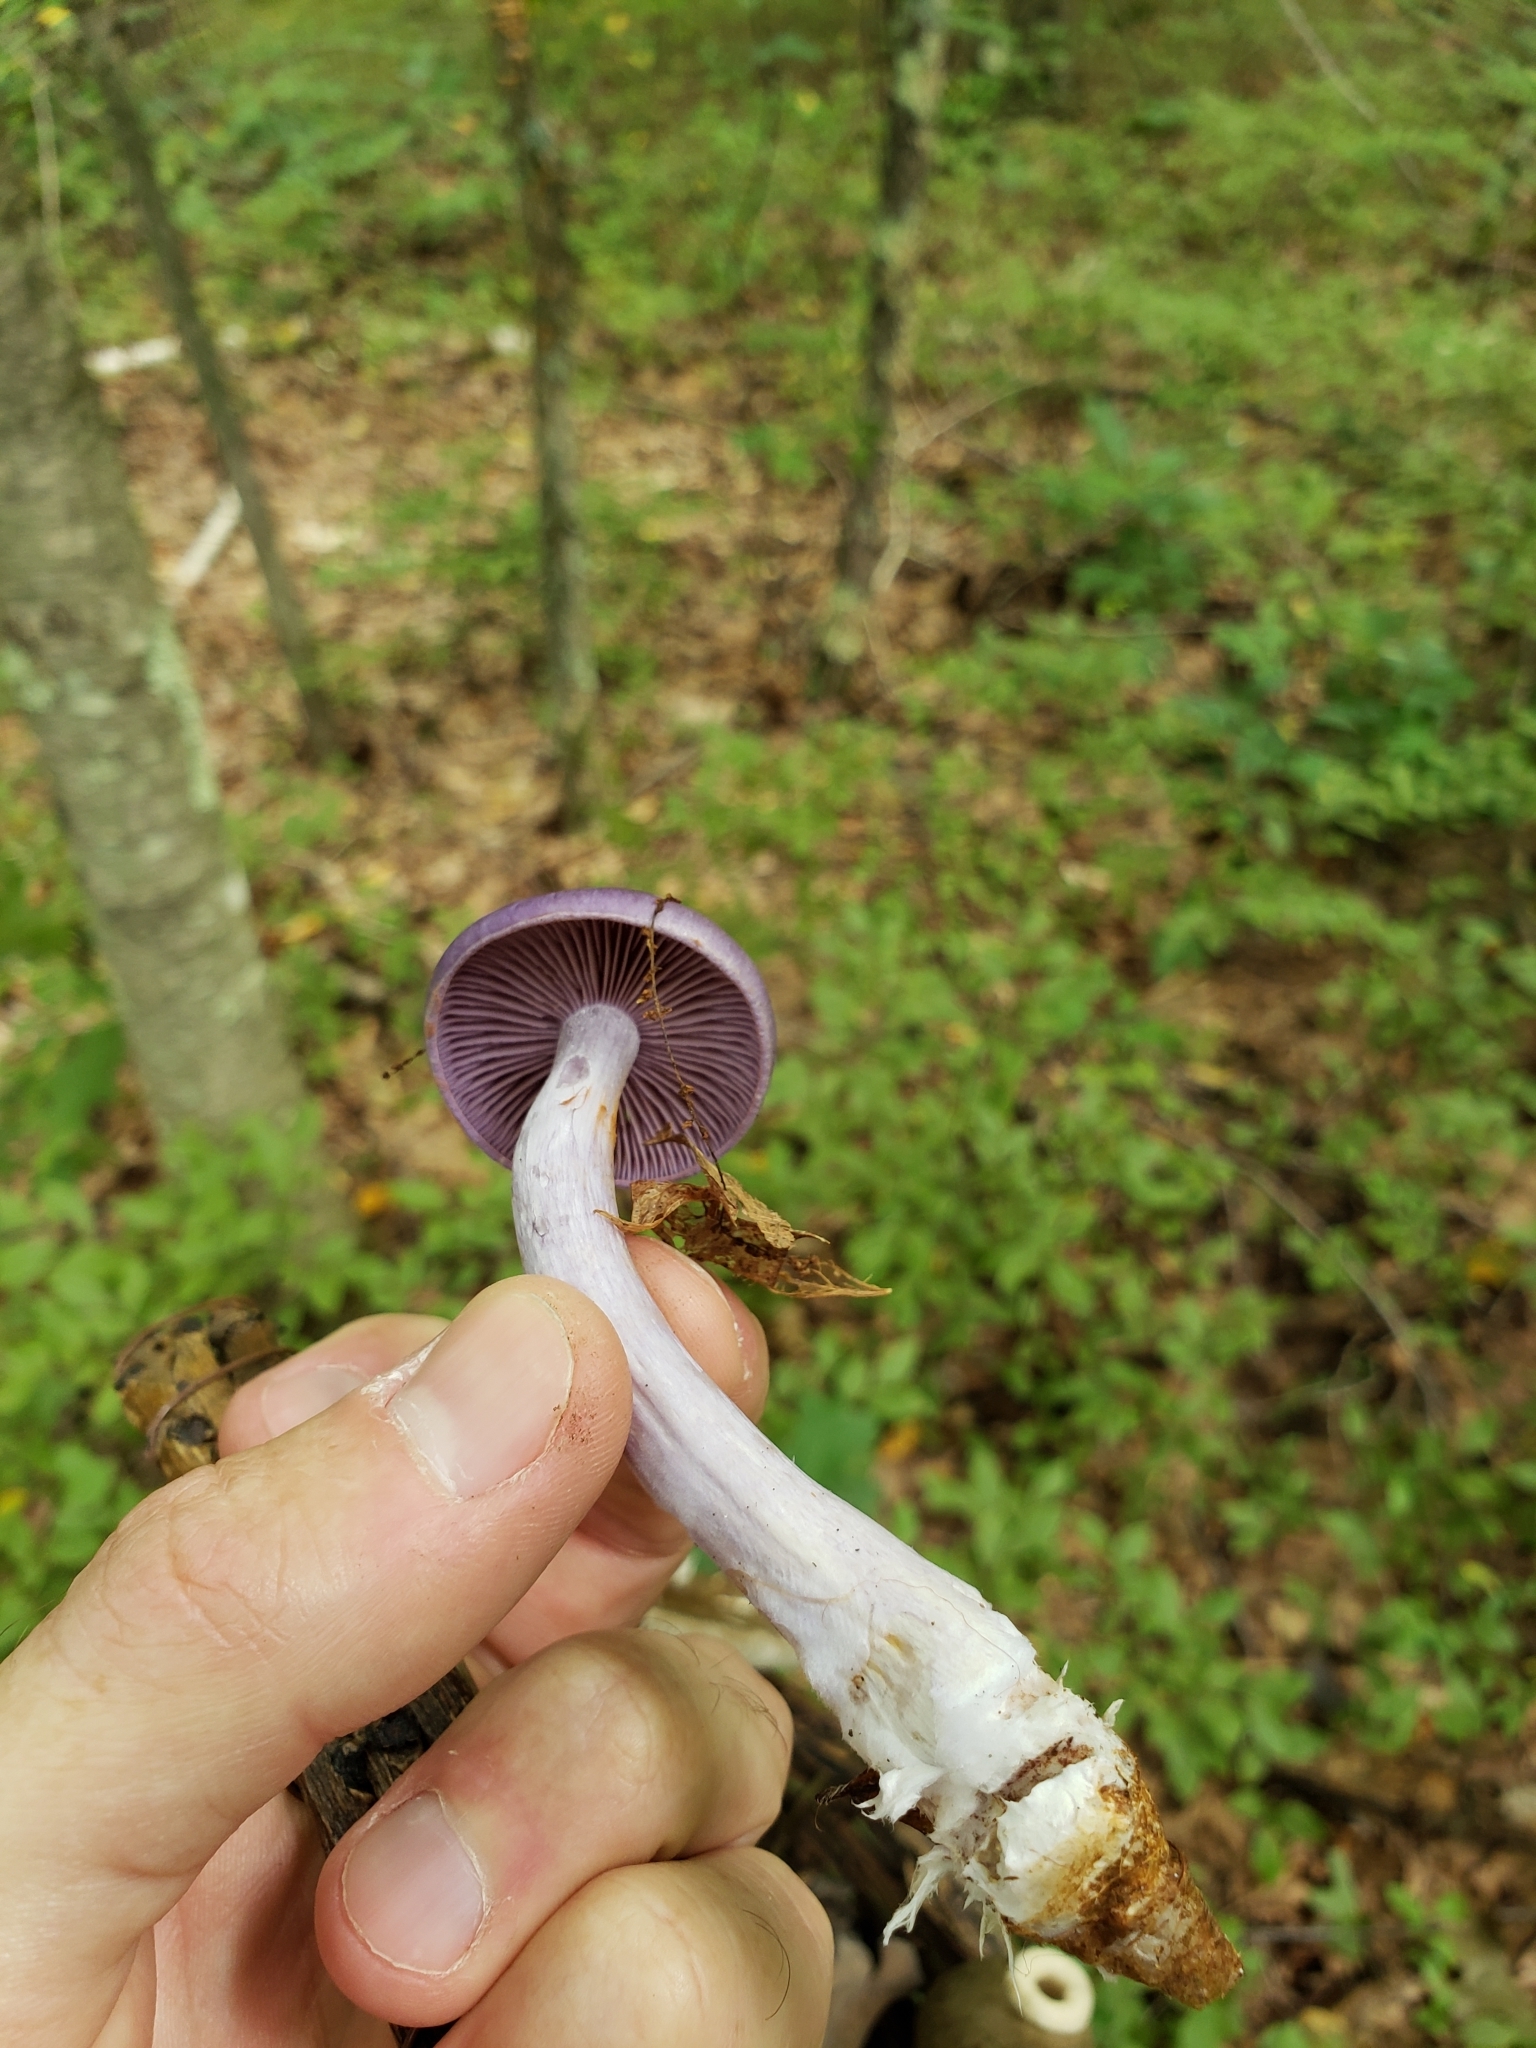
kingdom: Fungi
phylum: Basidiomycota
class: Agaricomycetes
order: Agaricales
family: Cortinariaceae
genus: Cortinarius
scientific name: Cortinarius iodes
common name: Viscid violet cort
